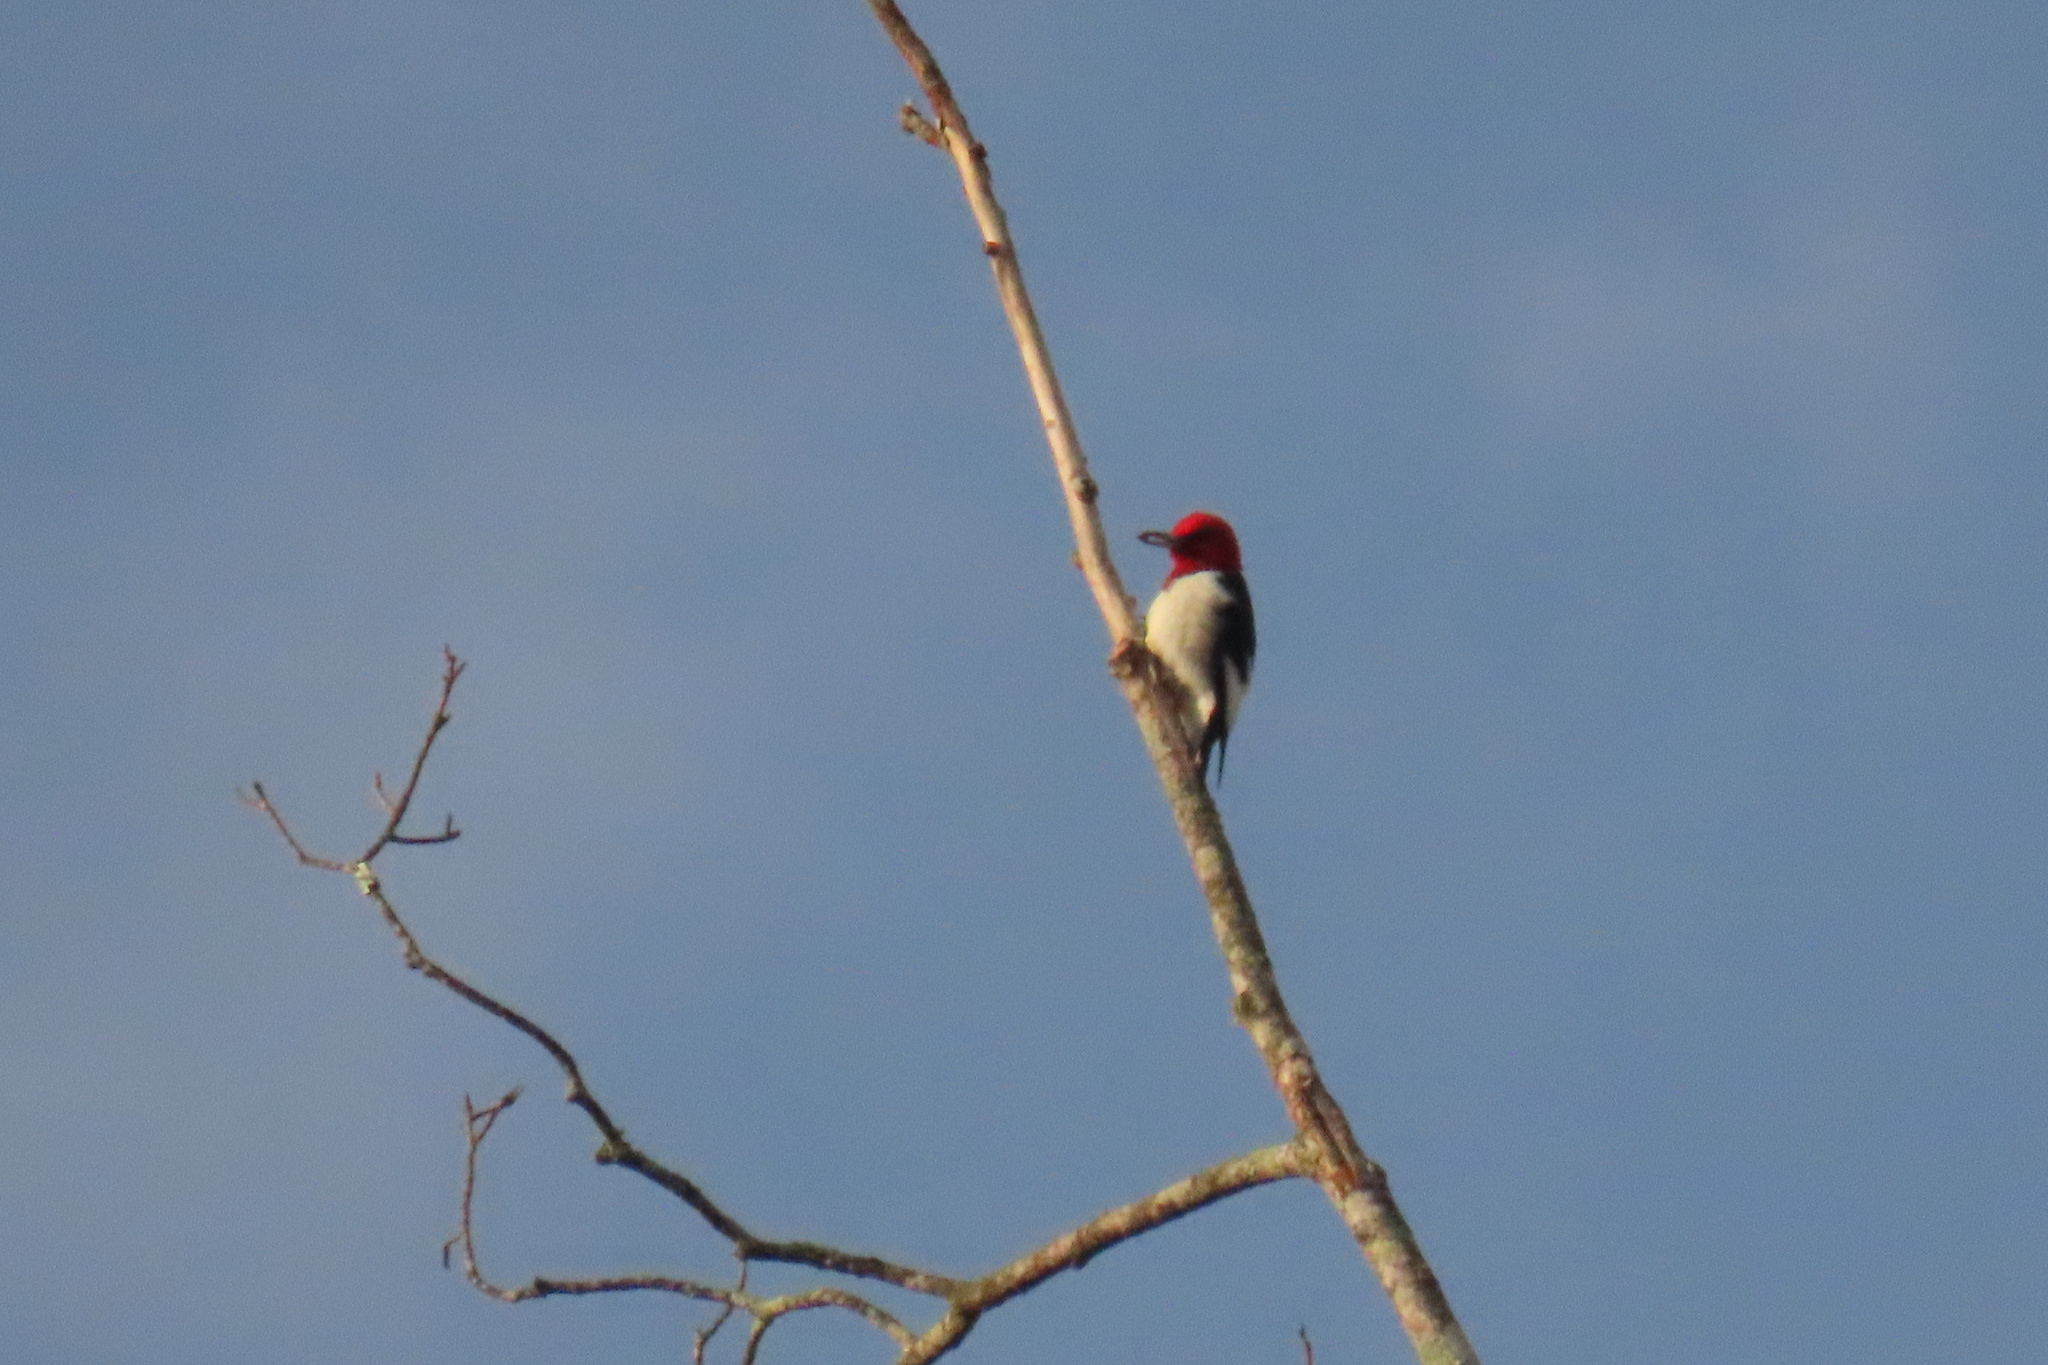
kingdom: Animalia
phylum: Chordata
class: Aves
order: Piciformes
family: Picidae
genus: Melanerpes
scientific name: Melanerpes erythrocephalus
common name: Red-headed woodpecker
